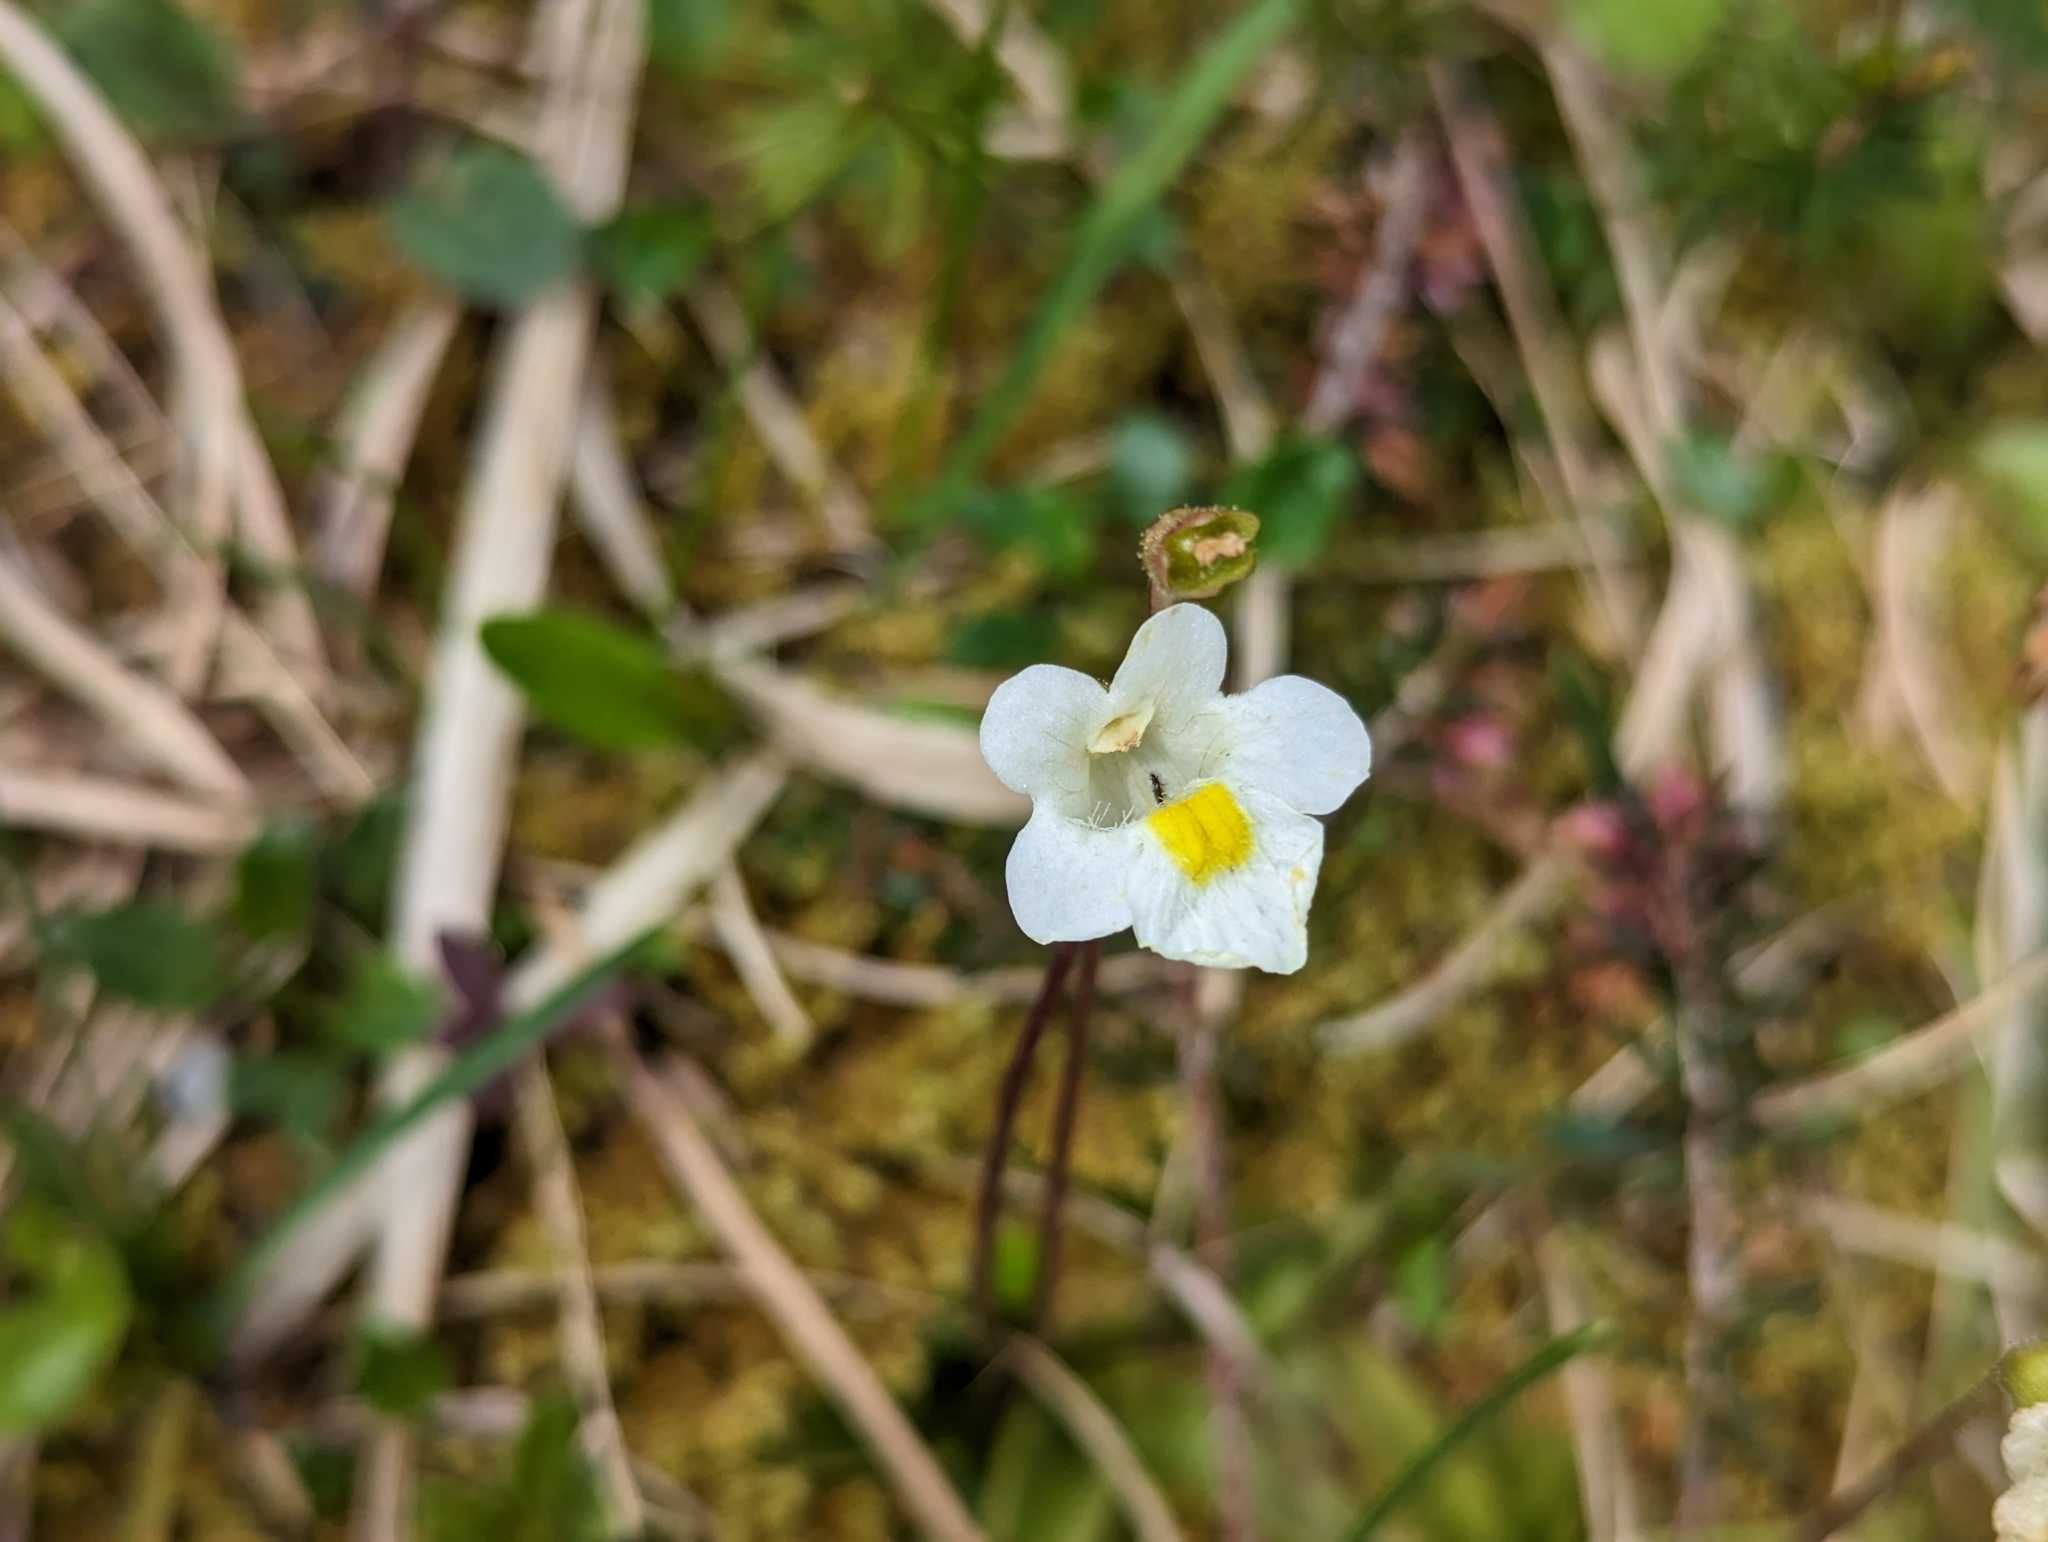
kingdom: Plantae
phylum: Tracheophyta
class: Magnoliopsida
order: Lamiales
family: Lentibulariaceae
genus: Pinguicula
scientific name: Pinguicula alpina
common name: Alpine butterwort
